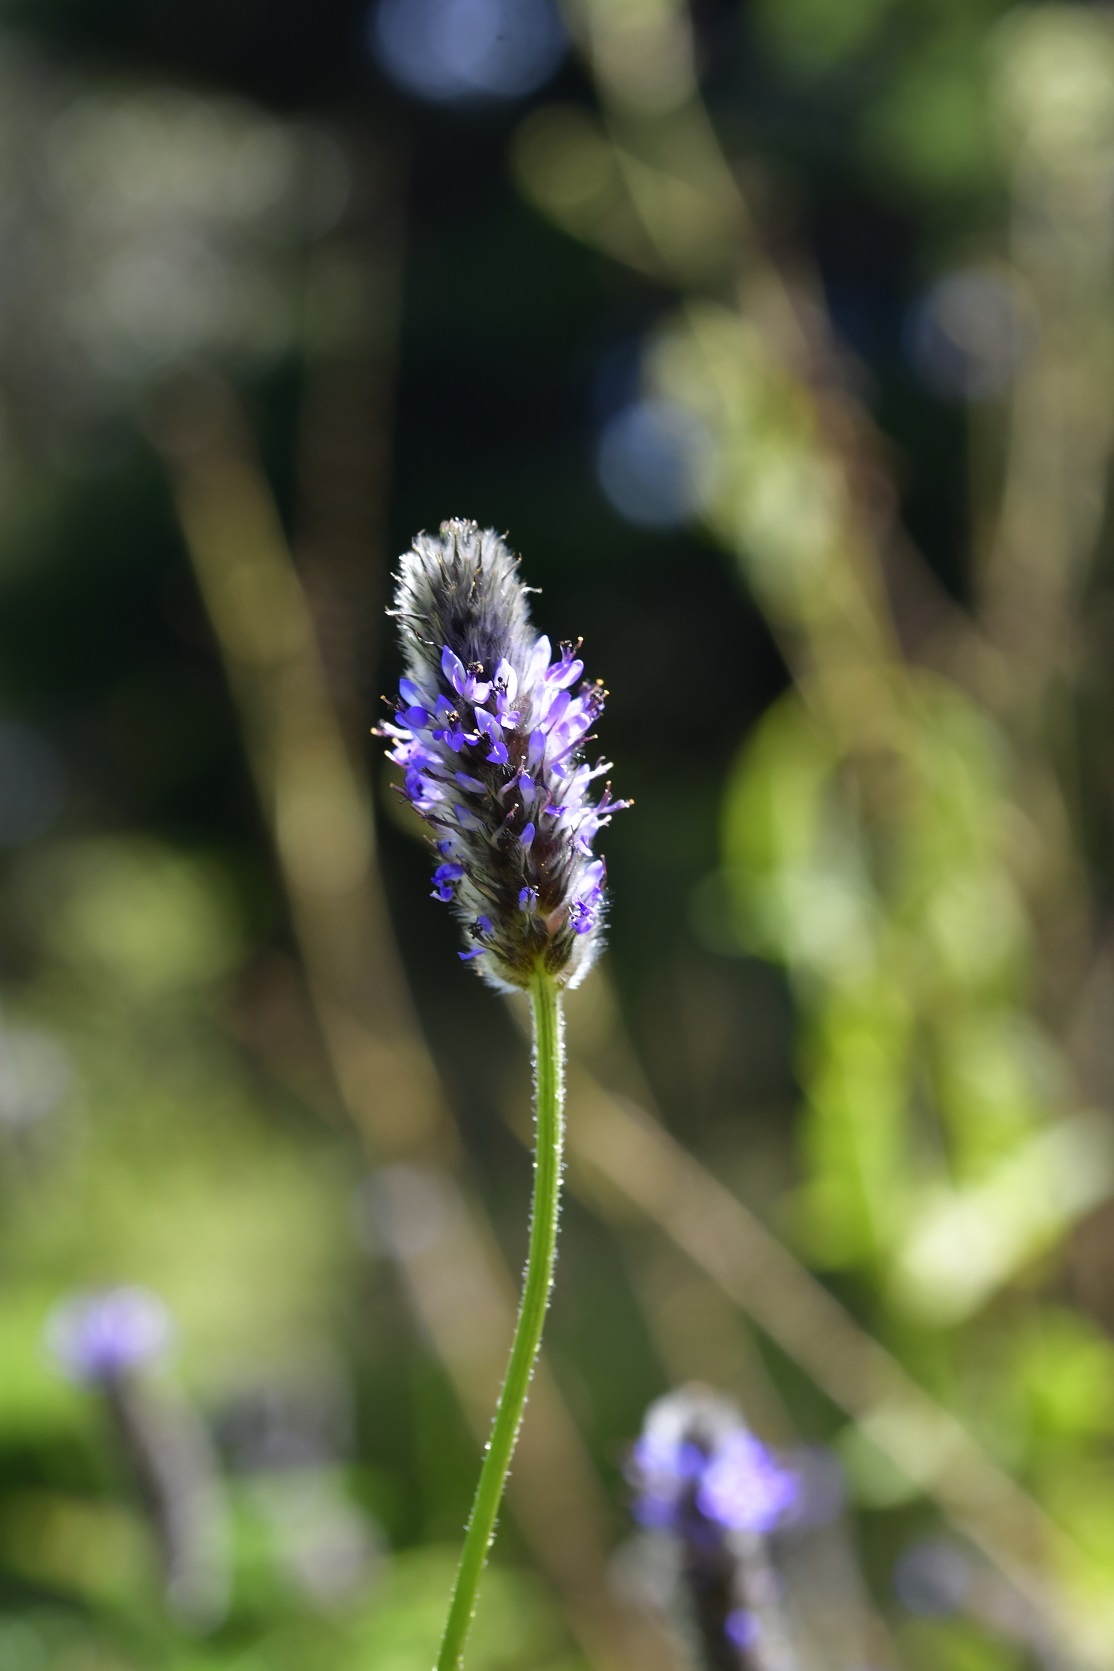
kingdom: Plantae
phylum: Tracheophyta
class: Magnoliopsida
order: Fabales
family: Fabaceae
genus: Dalea
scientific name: Dalea leporina
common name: Foxtail dalea
